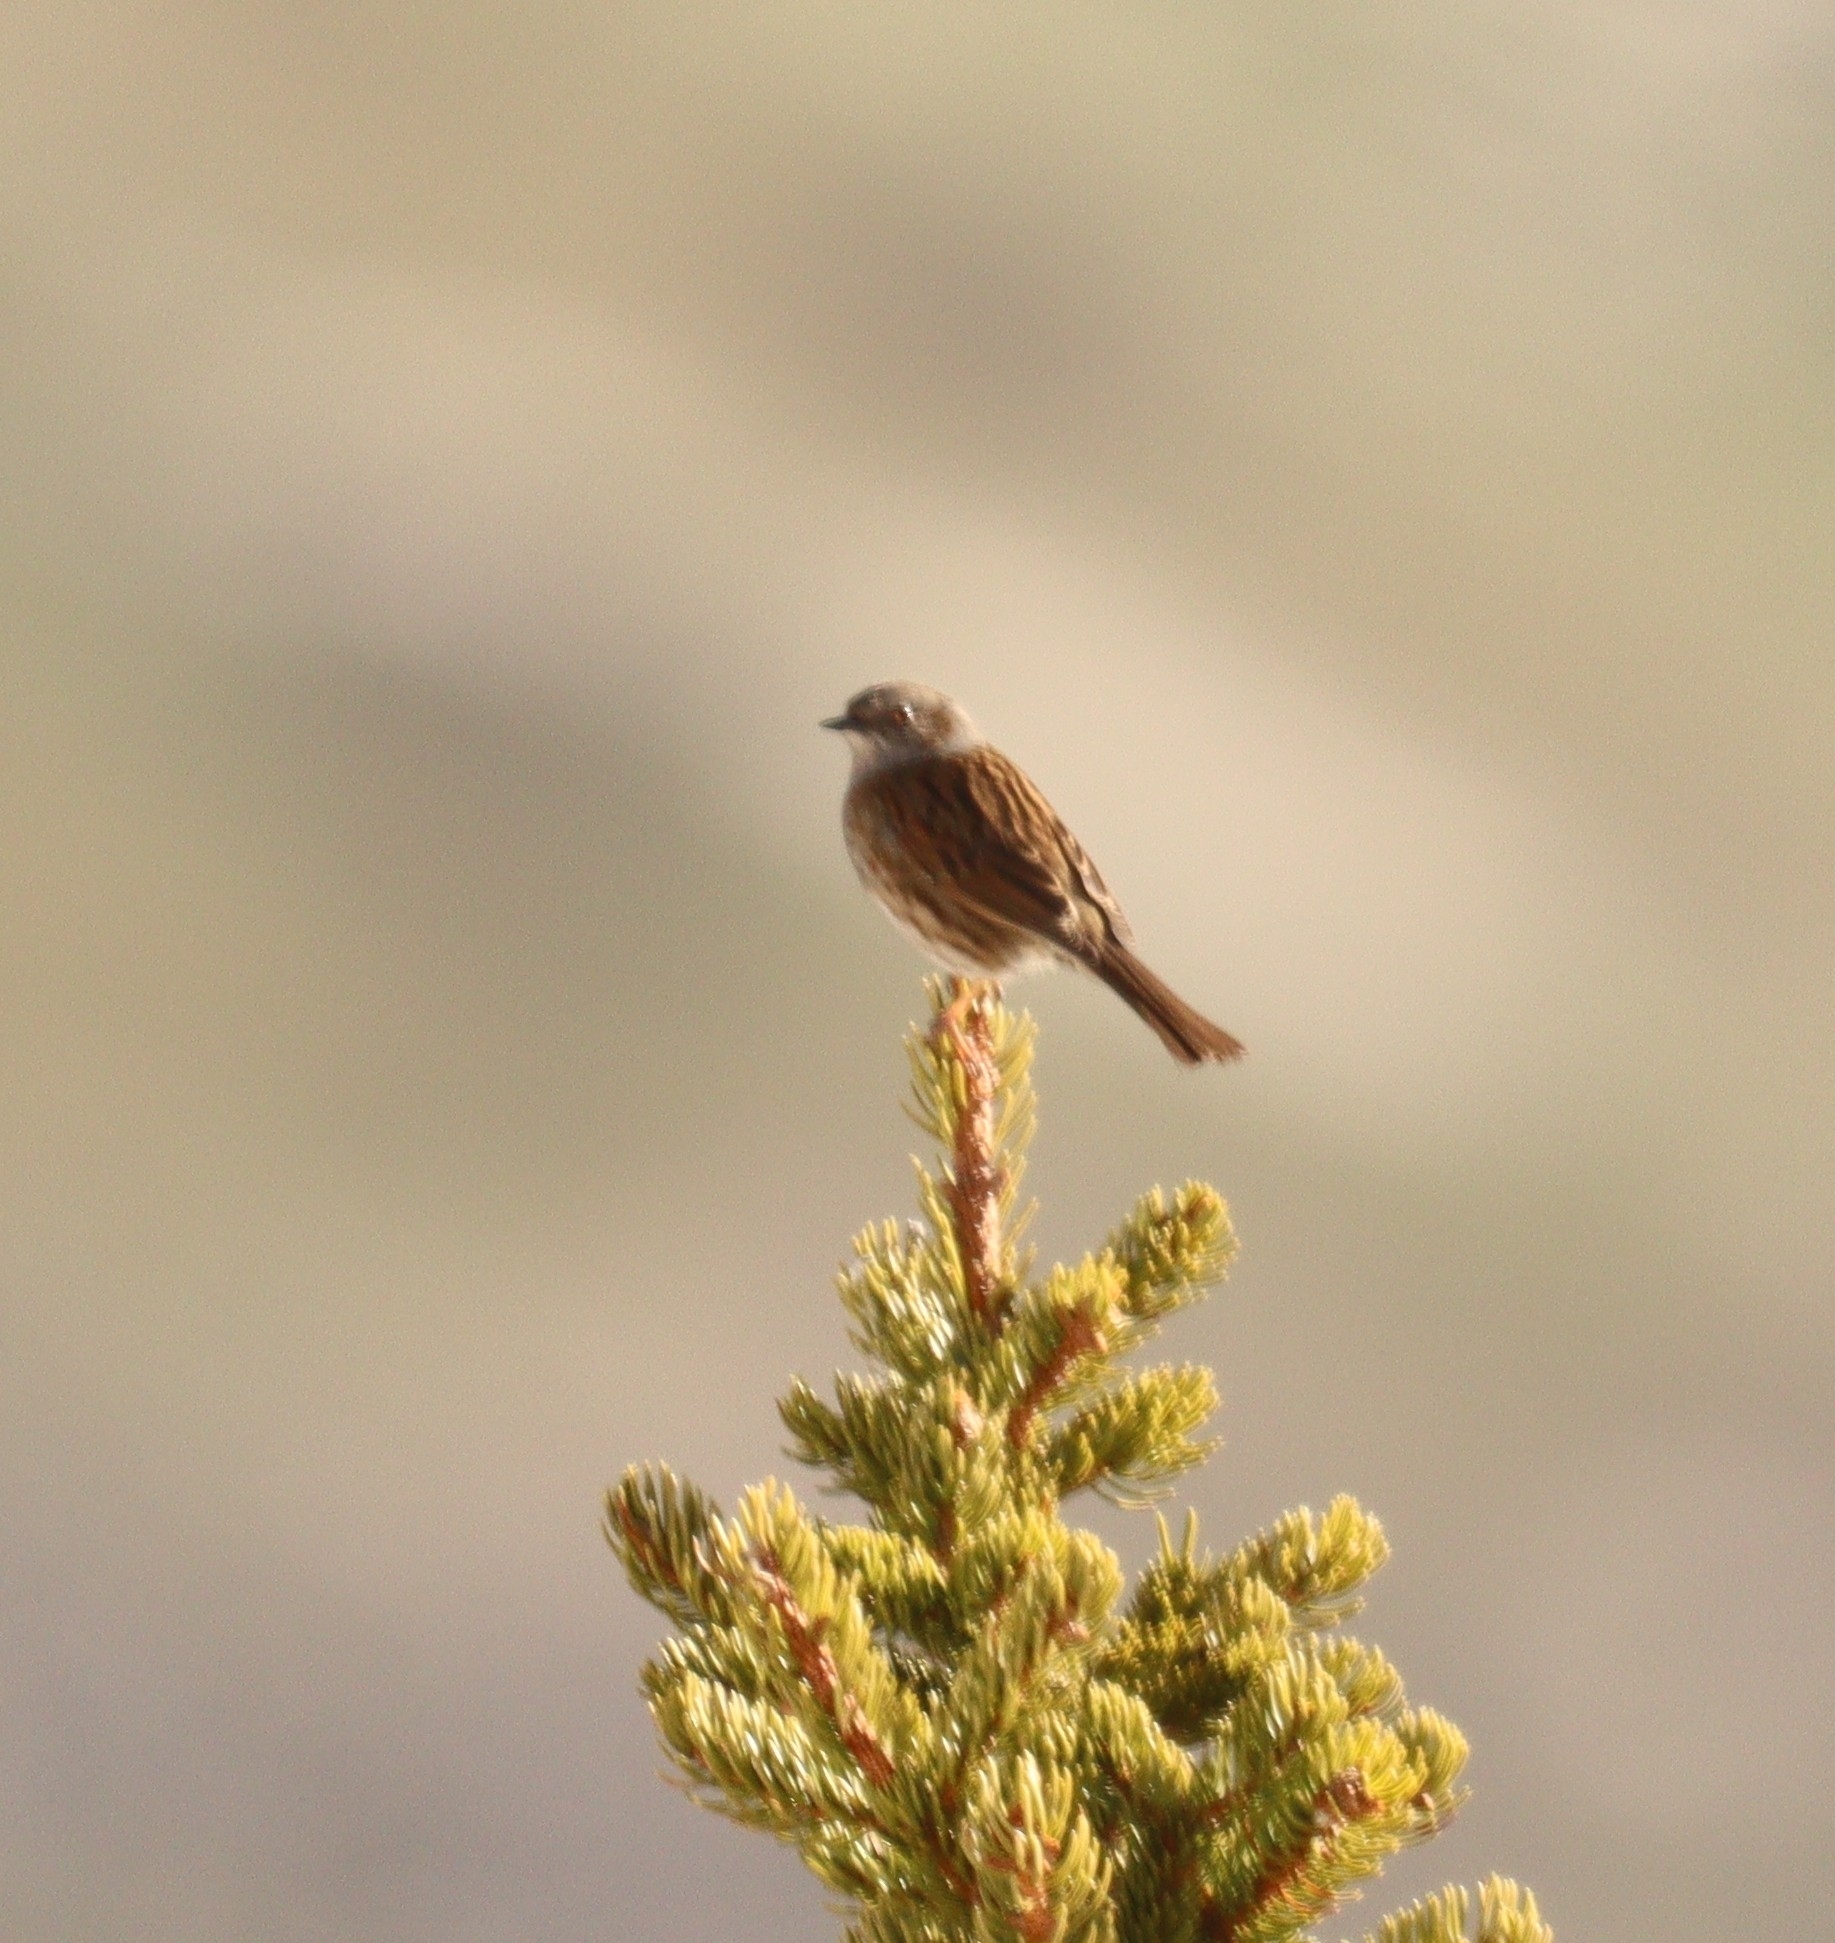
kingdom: Animalia
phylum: Chordata
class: Aves
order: Passeriformes
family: Prunellidae
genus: Prunella
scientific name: Prunella modularis
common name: Dunnock
